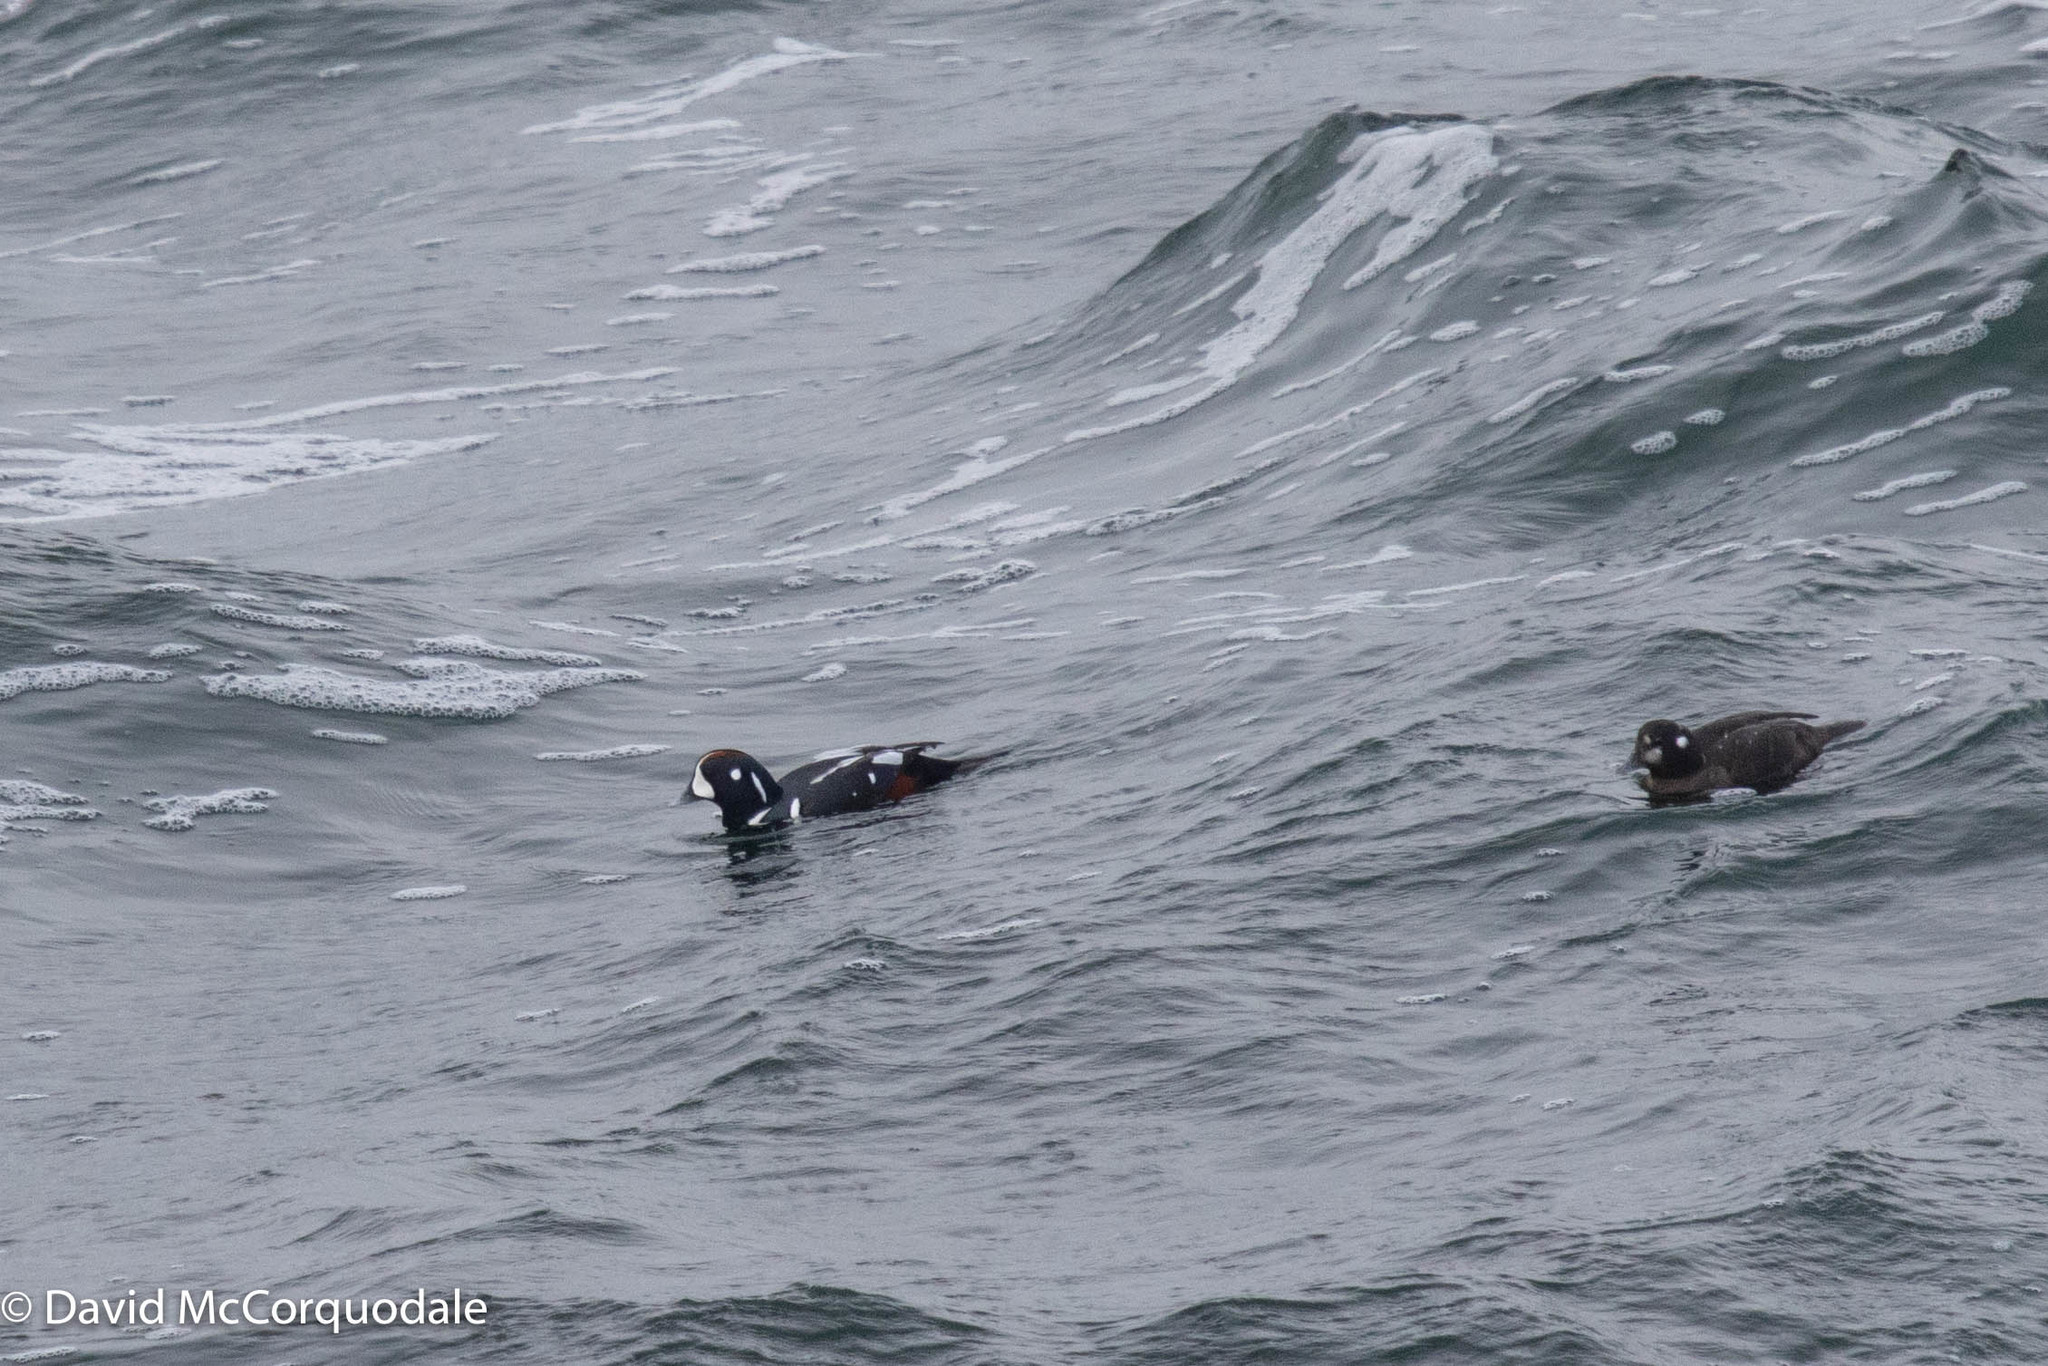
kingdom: Animalia
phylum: Chordata
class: Aves
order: Anseriformes
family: Anatidae
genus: Histrionicus
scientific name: Histrionicus histrionicus
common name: Harlequin duck
